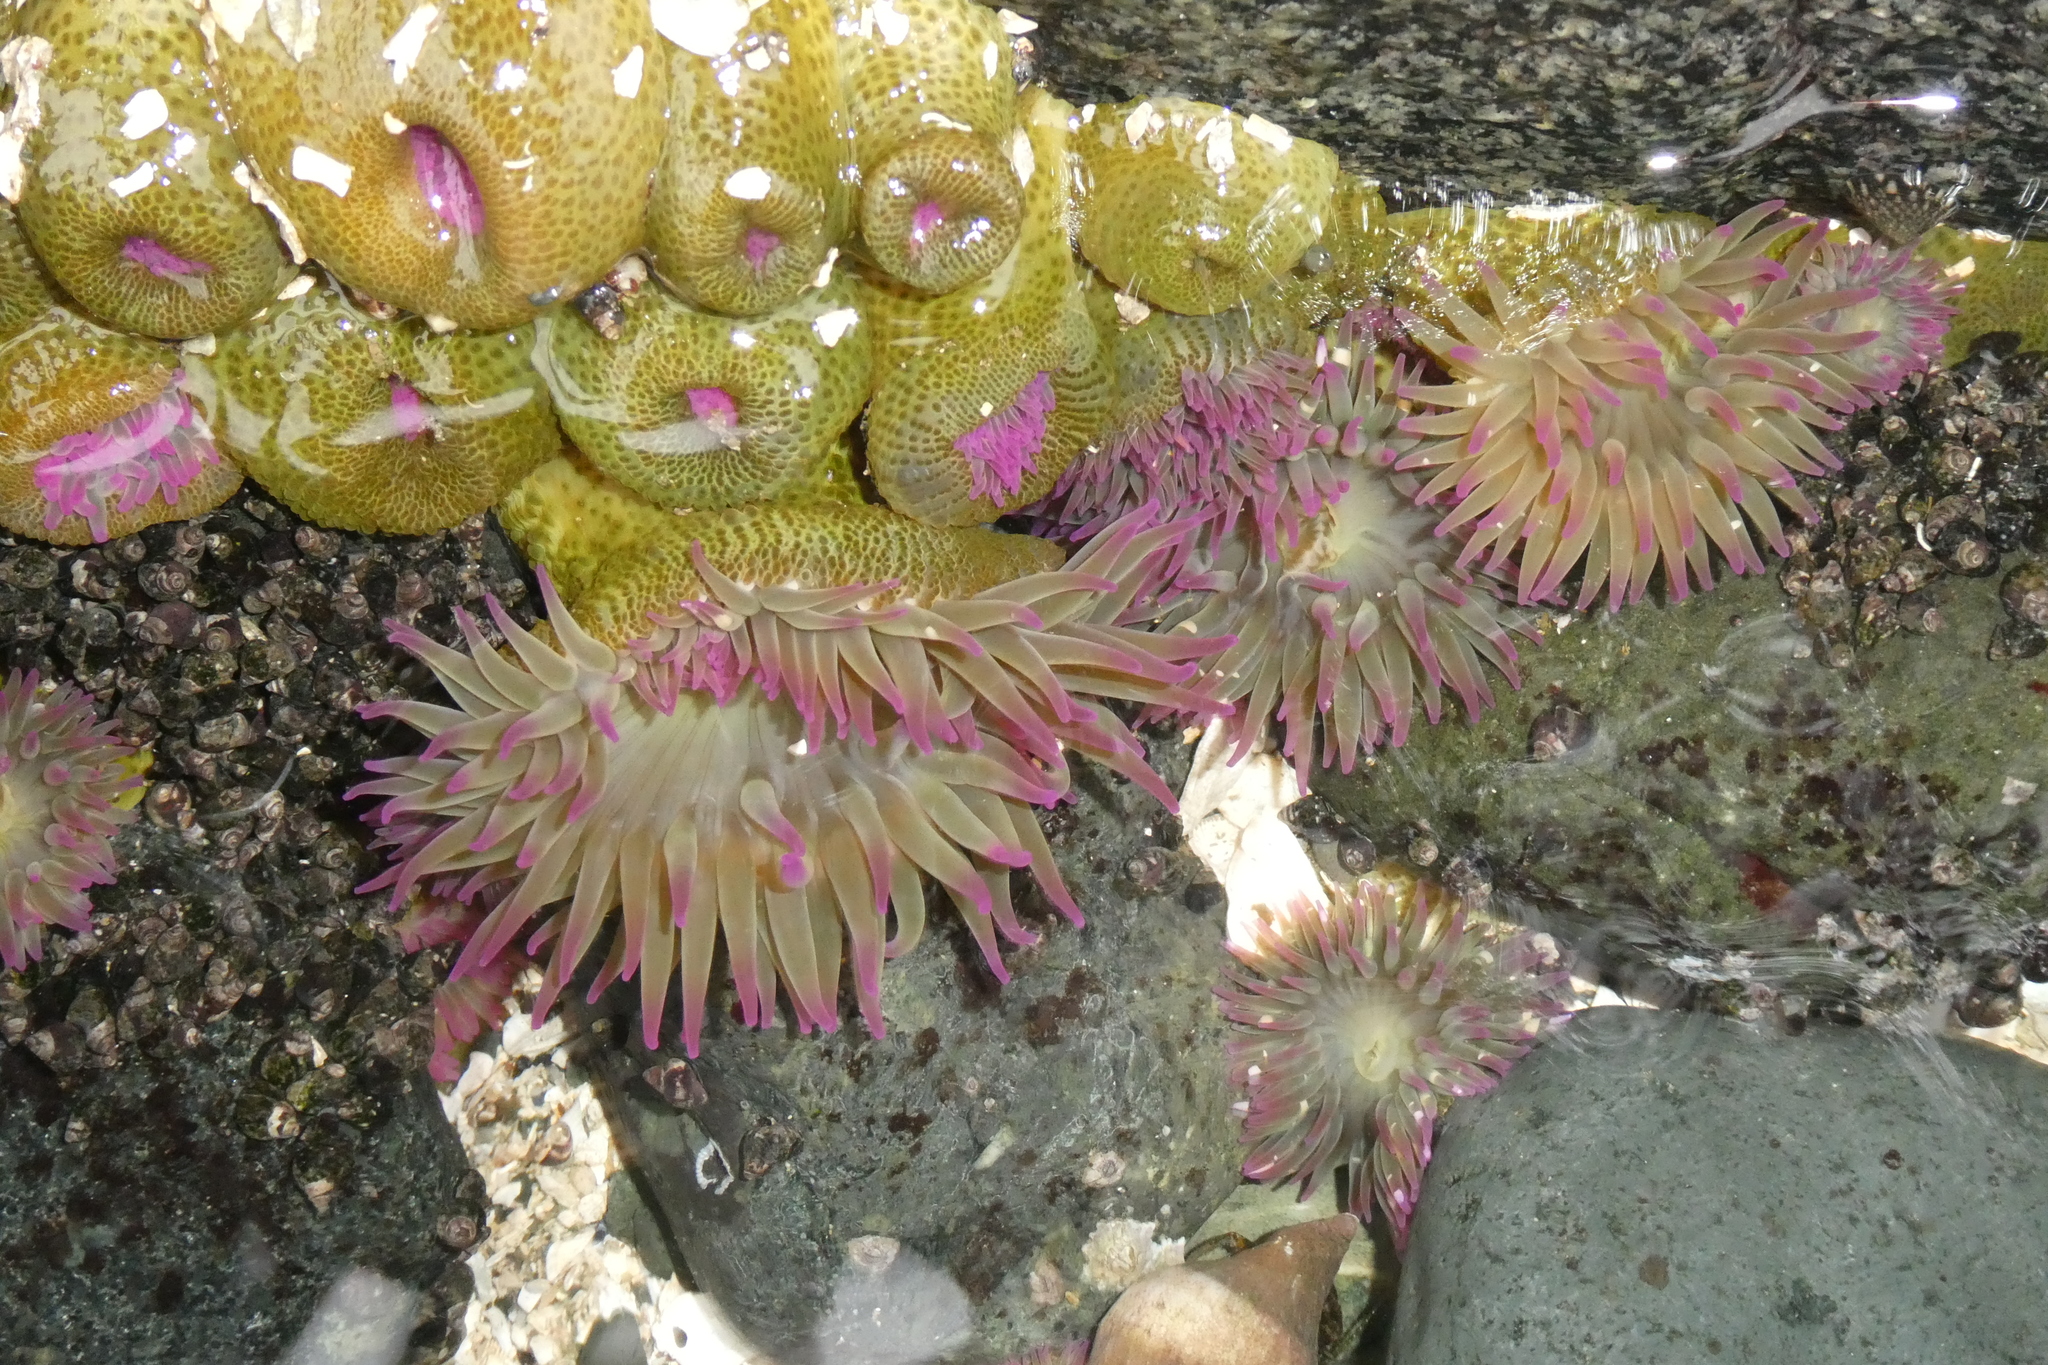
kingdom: Animalia
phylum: Cnidaria
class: Anthozoa
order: Actiniaria
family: Actiniidae
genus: Anthopleura
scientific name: Anthopleura elegantissima
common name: Clonal anemone
